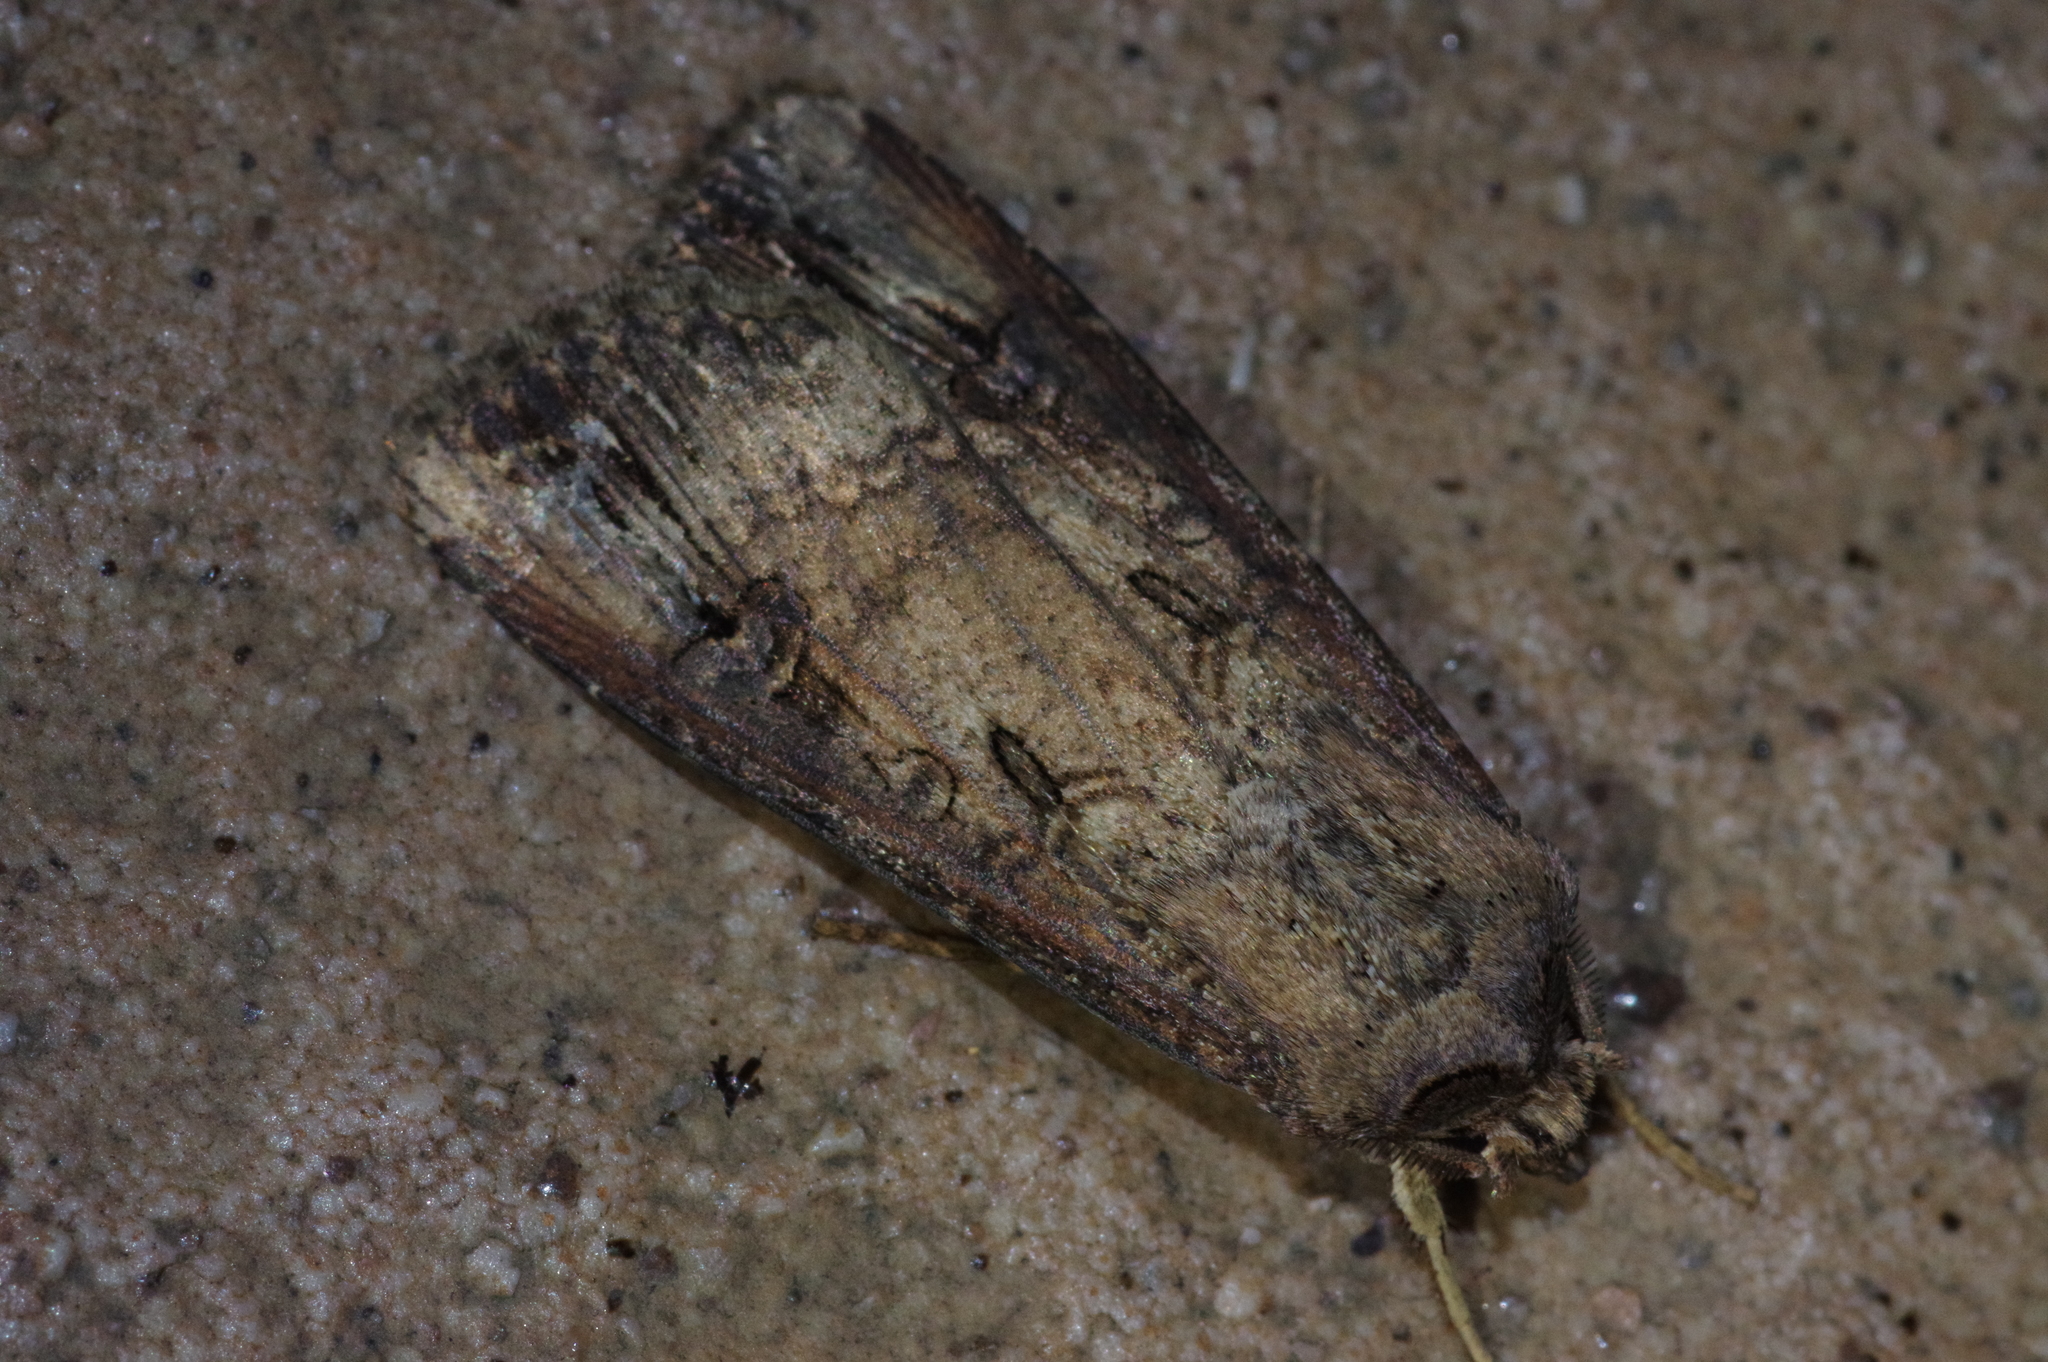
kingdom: Animalia
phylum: Arthropoda
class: Insecta
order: Lepidoptera
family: Noctuidae
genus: Agrotis
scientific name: Agrotis ipsilon
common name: Dark sword-grass
